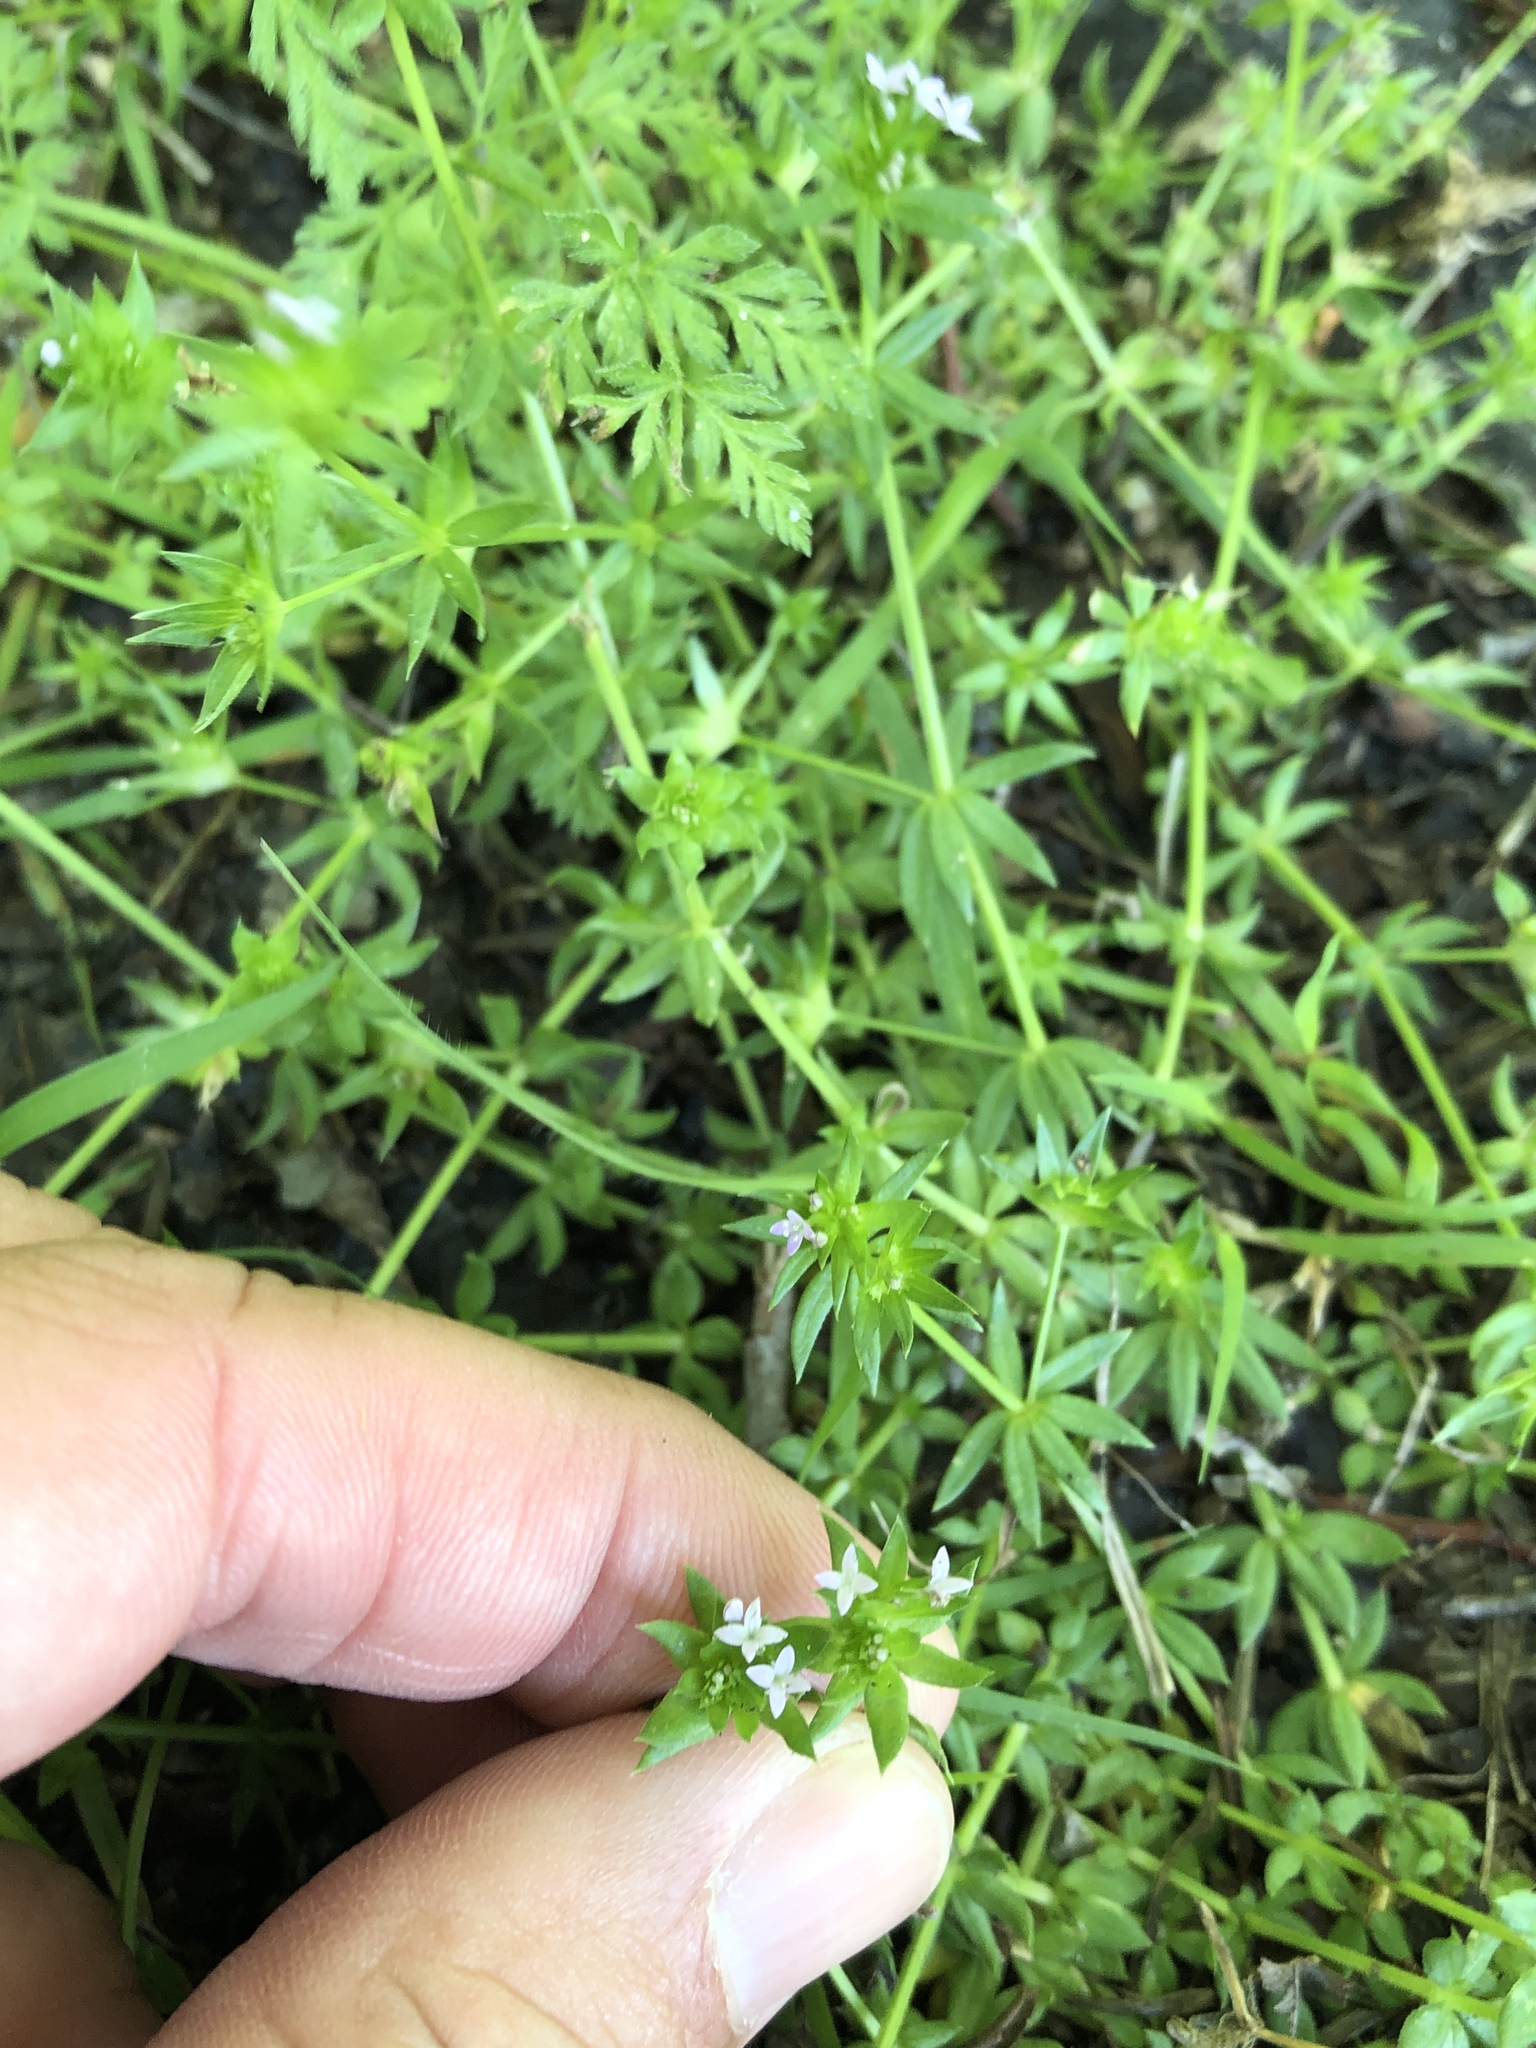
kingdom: Plantae
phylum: Tracheophyta
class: Magnoliopsida
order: Gentianales
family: Rubiaceae
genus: Sherardia
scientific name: Sherardia arvensis
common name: Field madder
